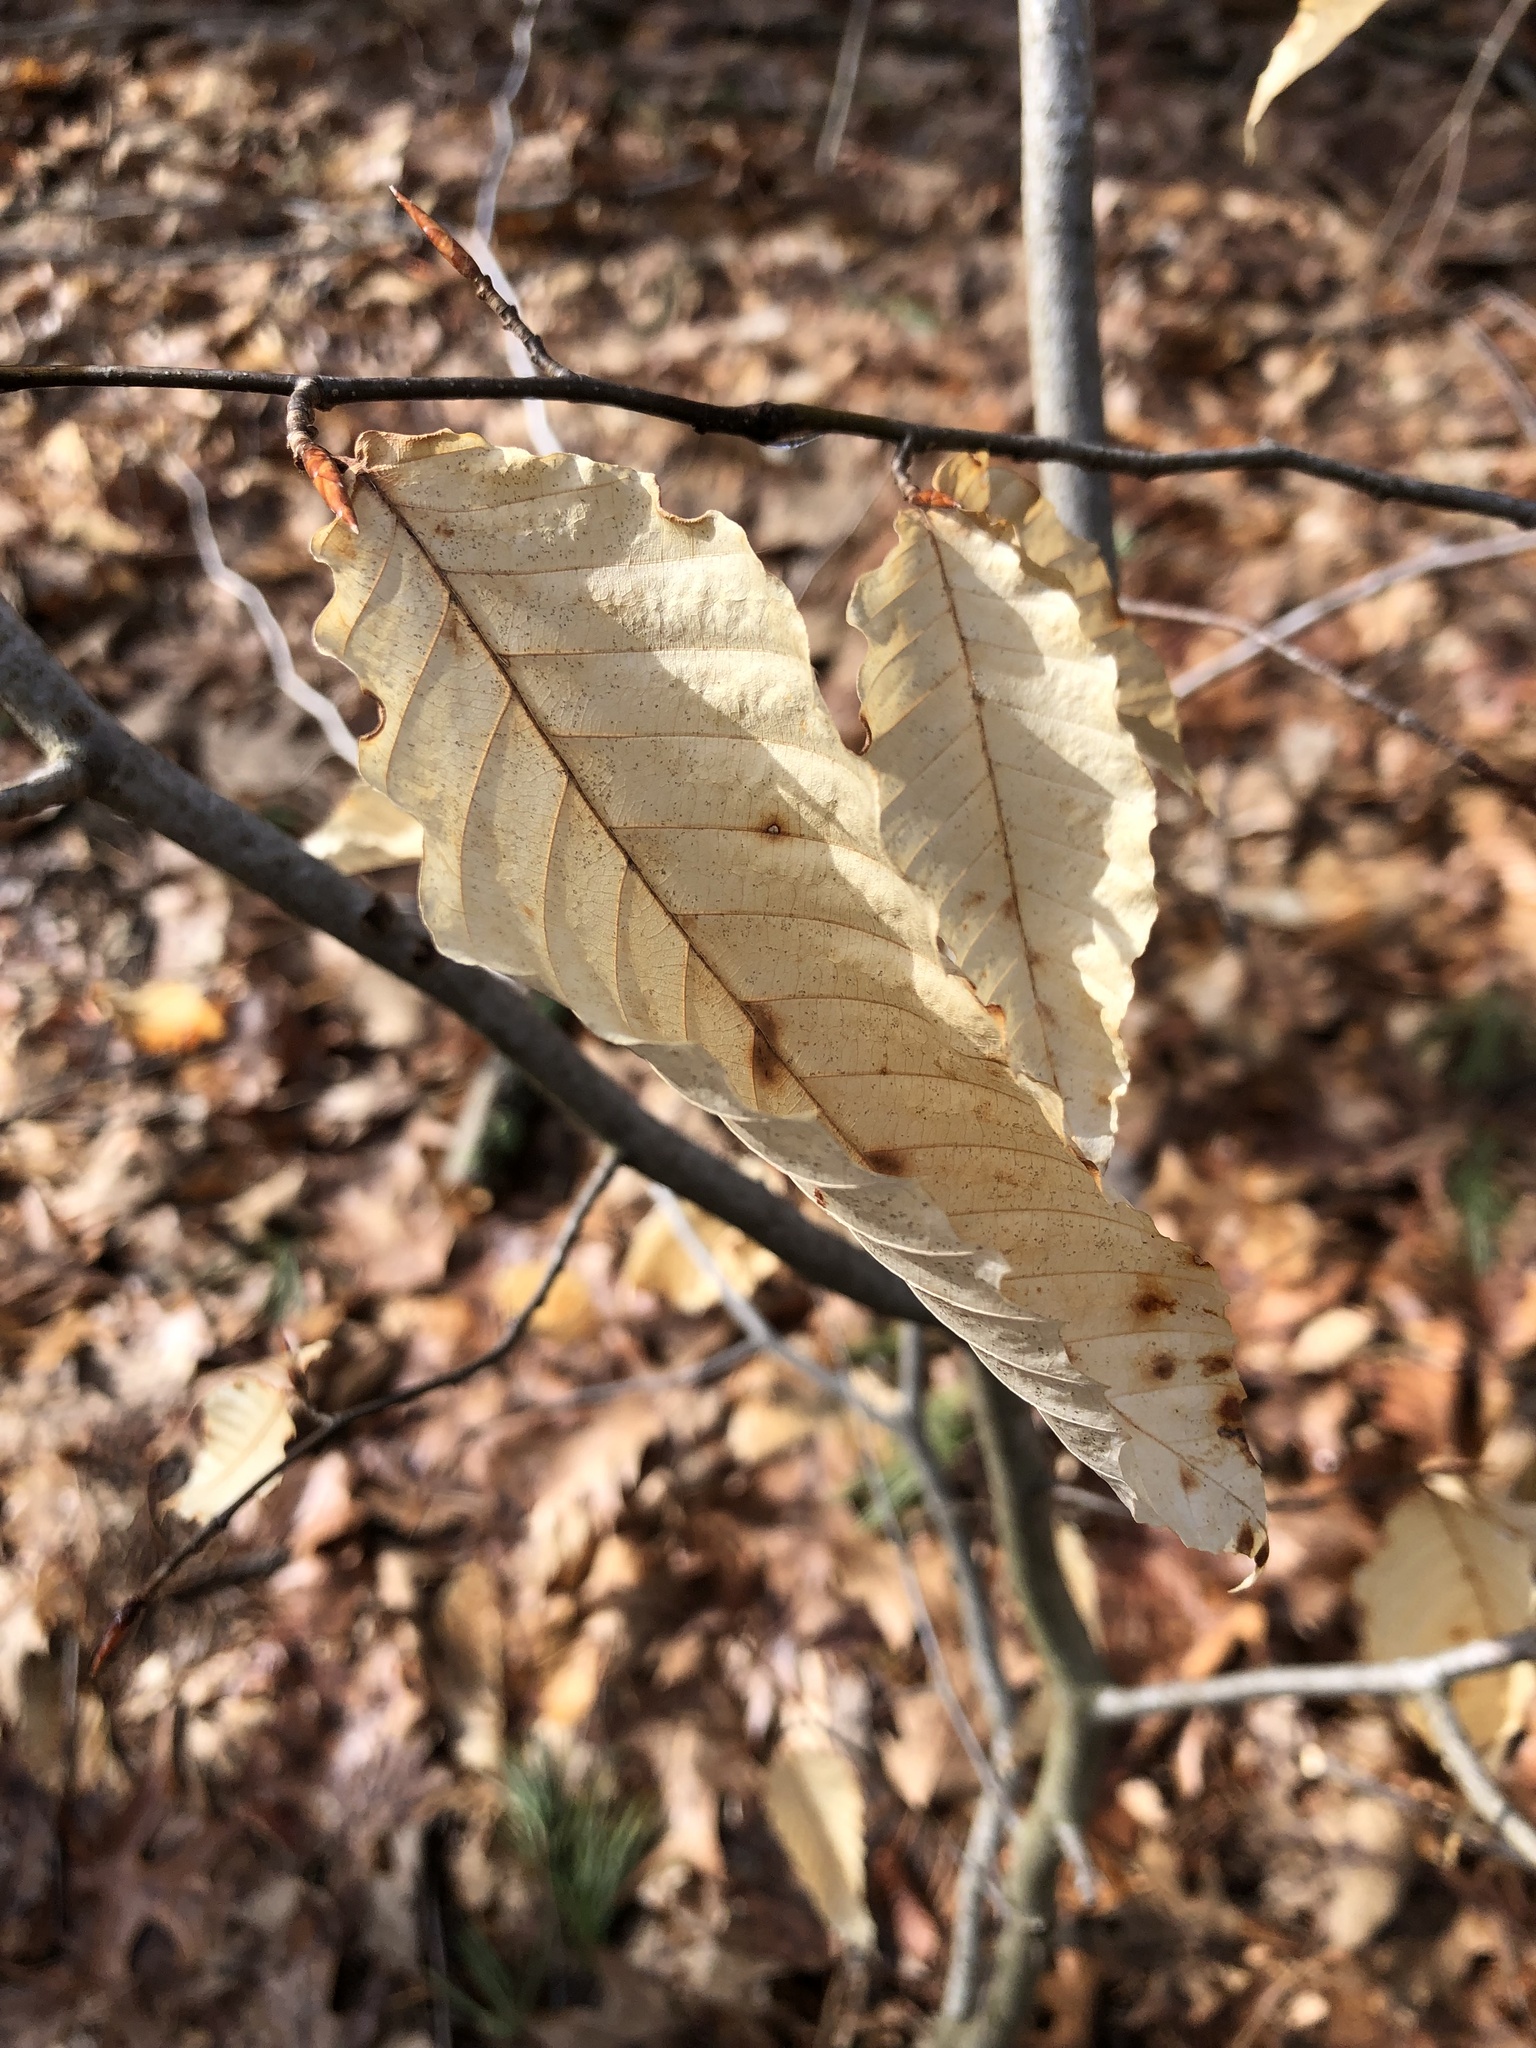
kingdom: Animalia
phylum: Arthropoda
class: Arachnida
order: Trombidiformes
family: Eriophyidae
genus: Acalitus
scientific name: Acalitus
